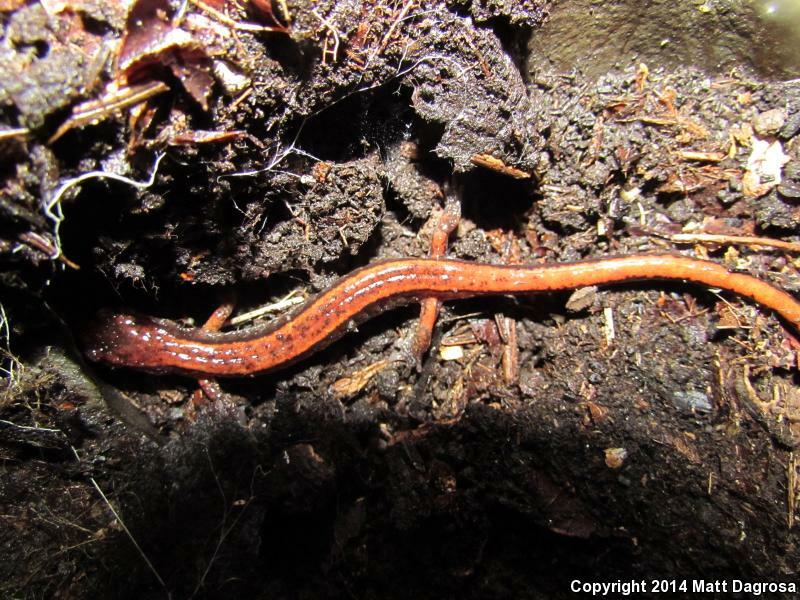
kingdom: Animalia
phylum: Chordata
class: Amphibia
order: Caudata
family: Plethodontidae
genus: Plethodon
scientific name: Plethodon vehiculum
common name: Western red-backed salamander
